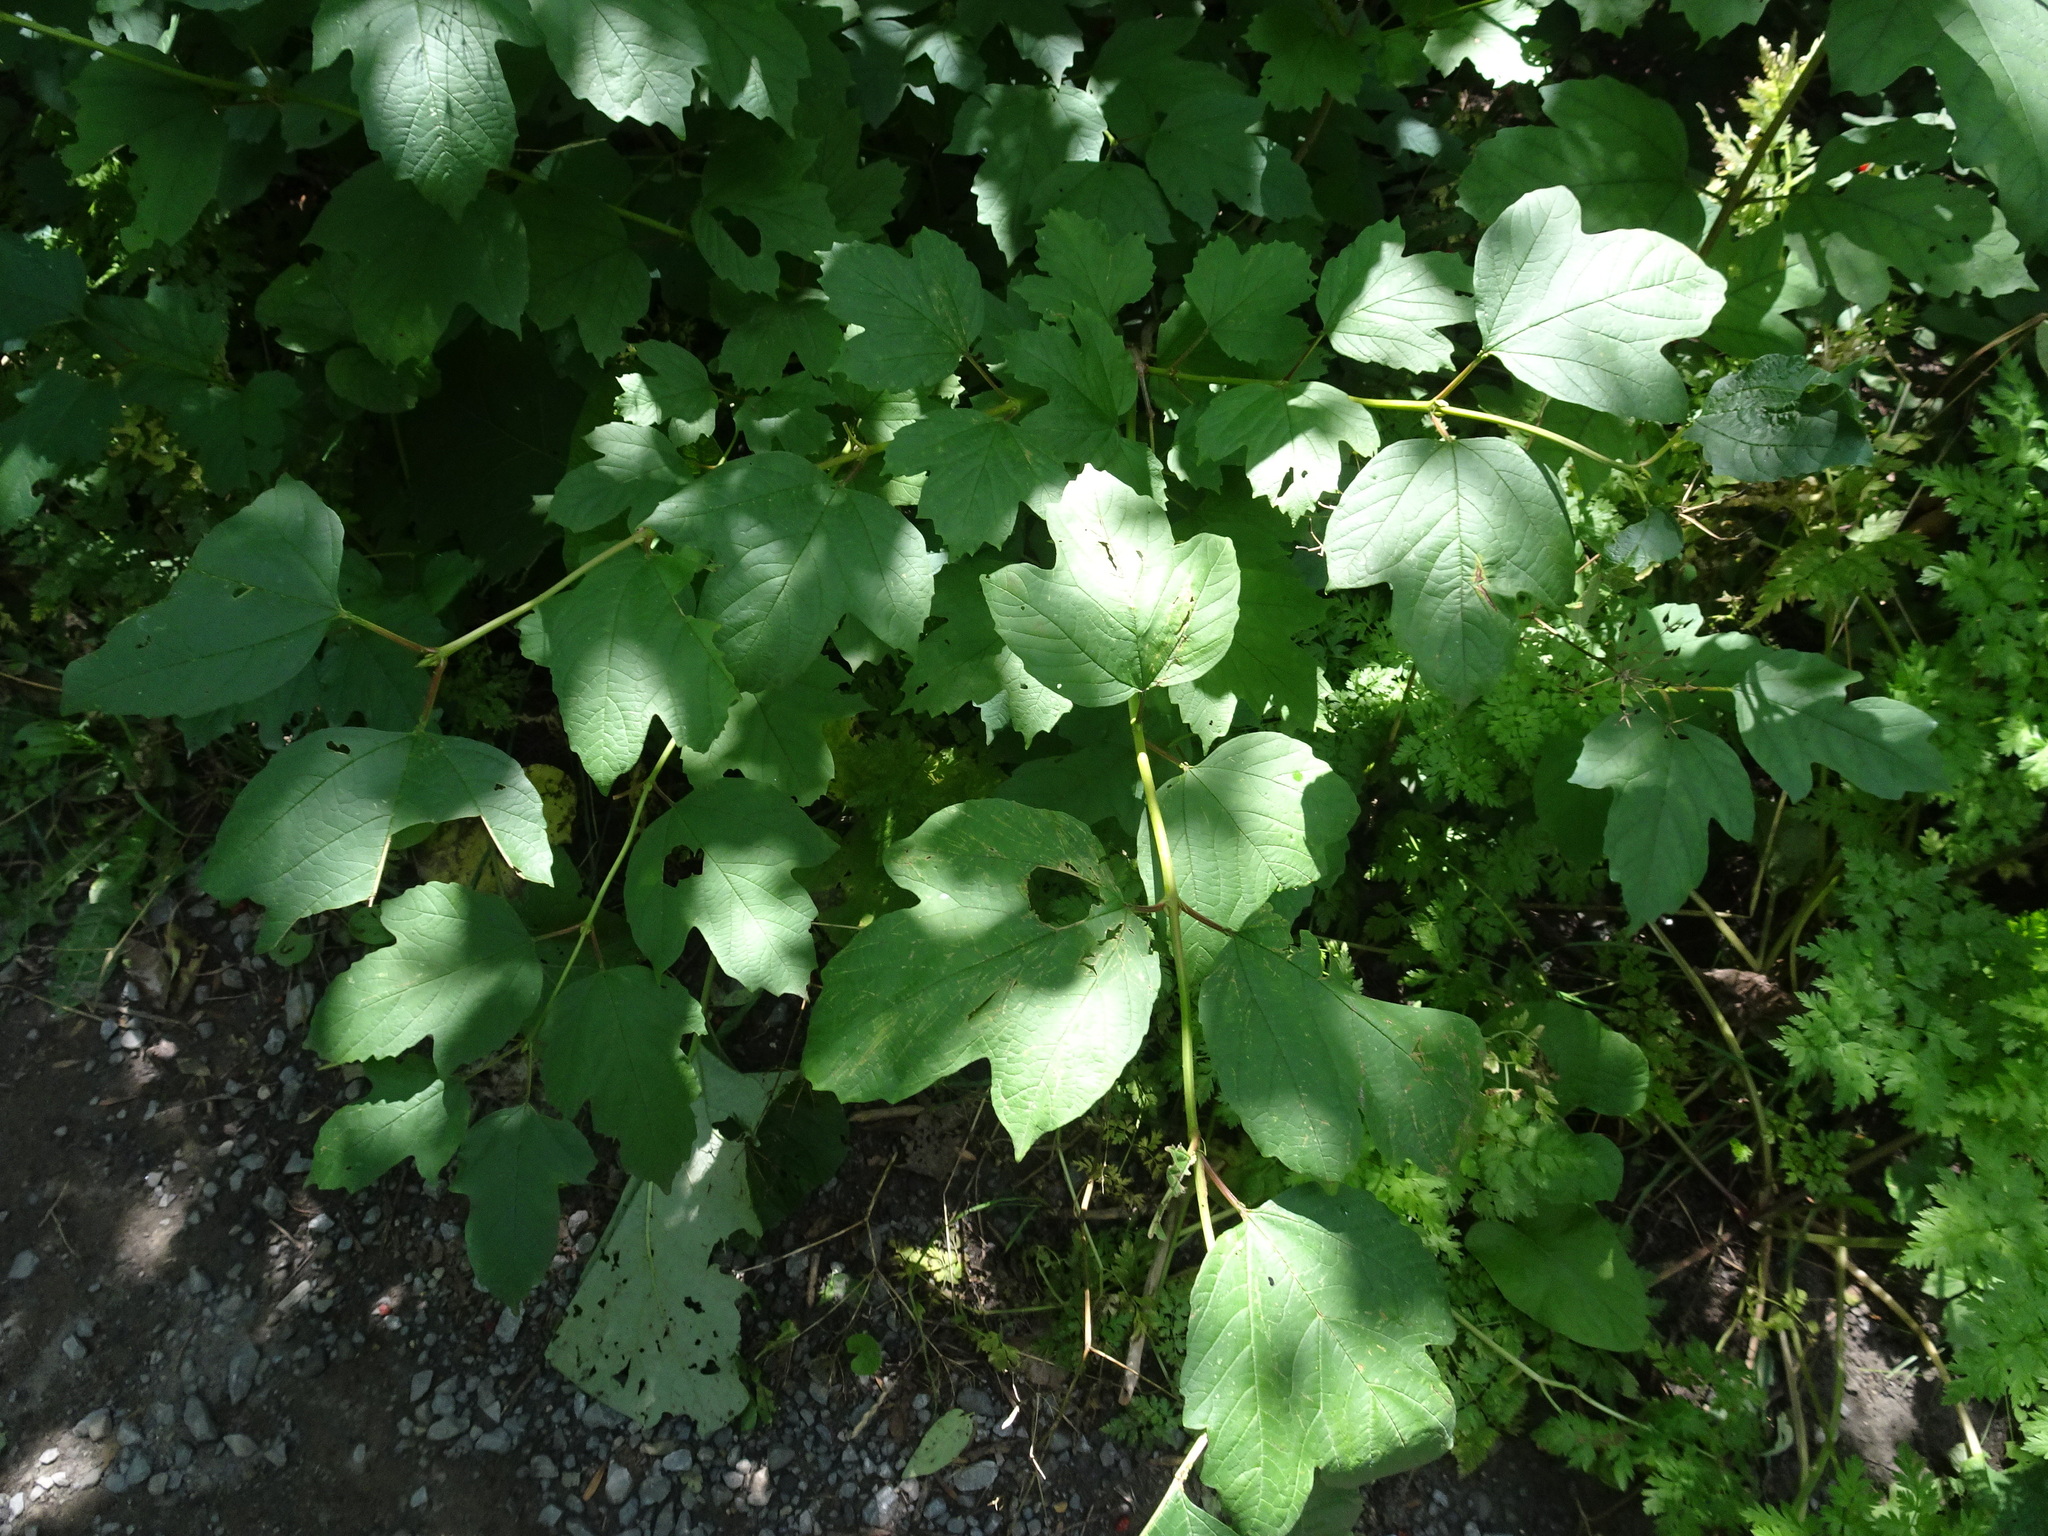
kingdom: Plantae
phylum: Tracheophyta
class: Magnoliopsida
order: Dipsacales
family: Viburnaceae
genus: Viburnum
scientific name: Viburnum opulus
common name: Guelder-rose
